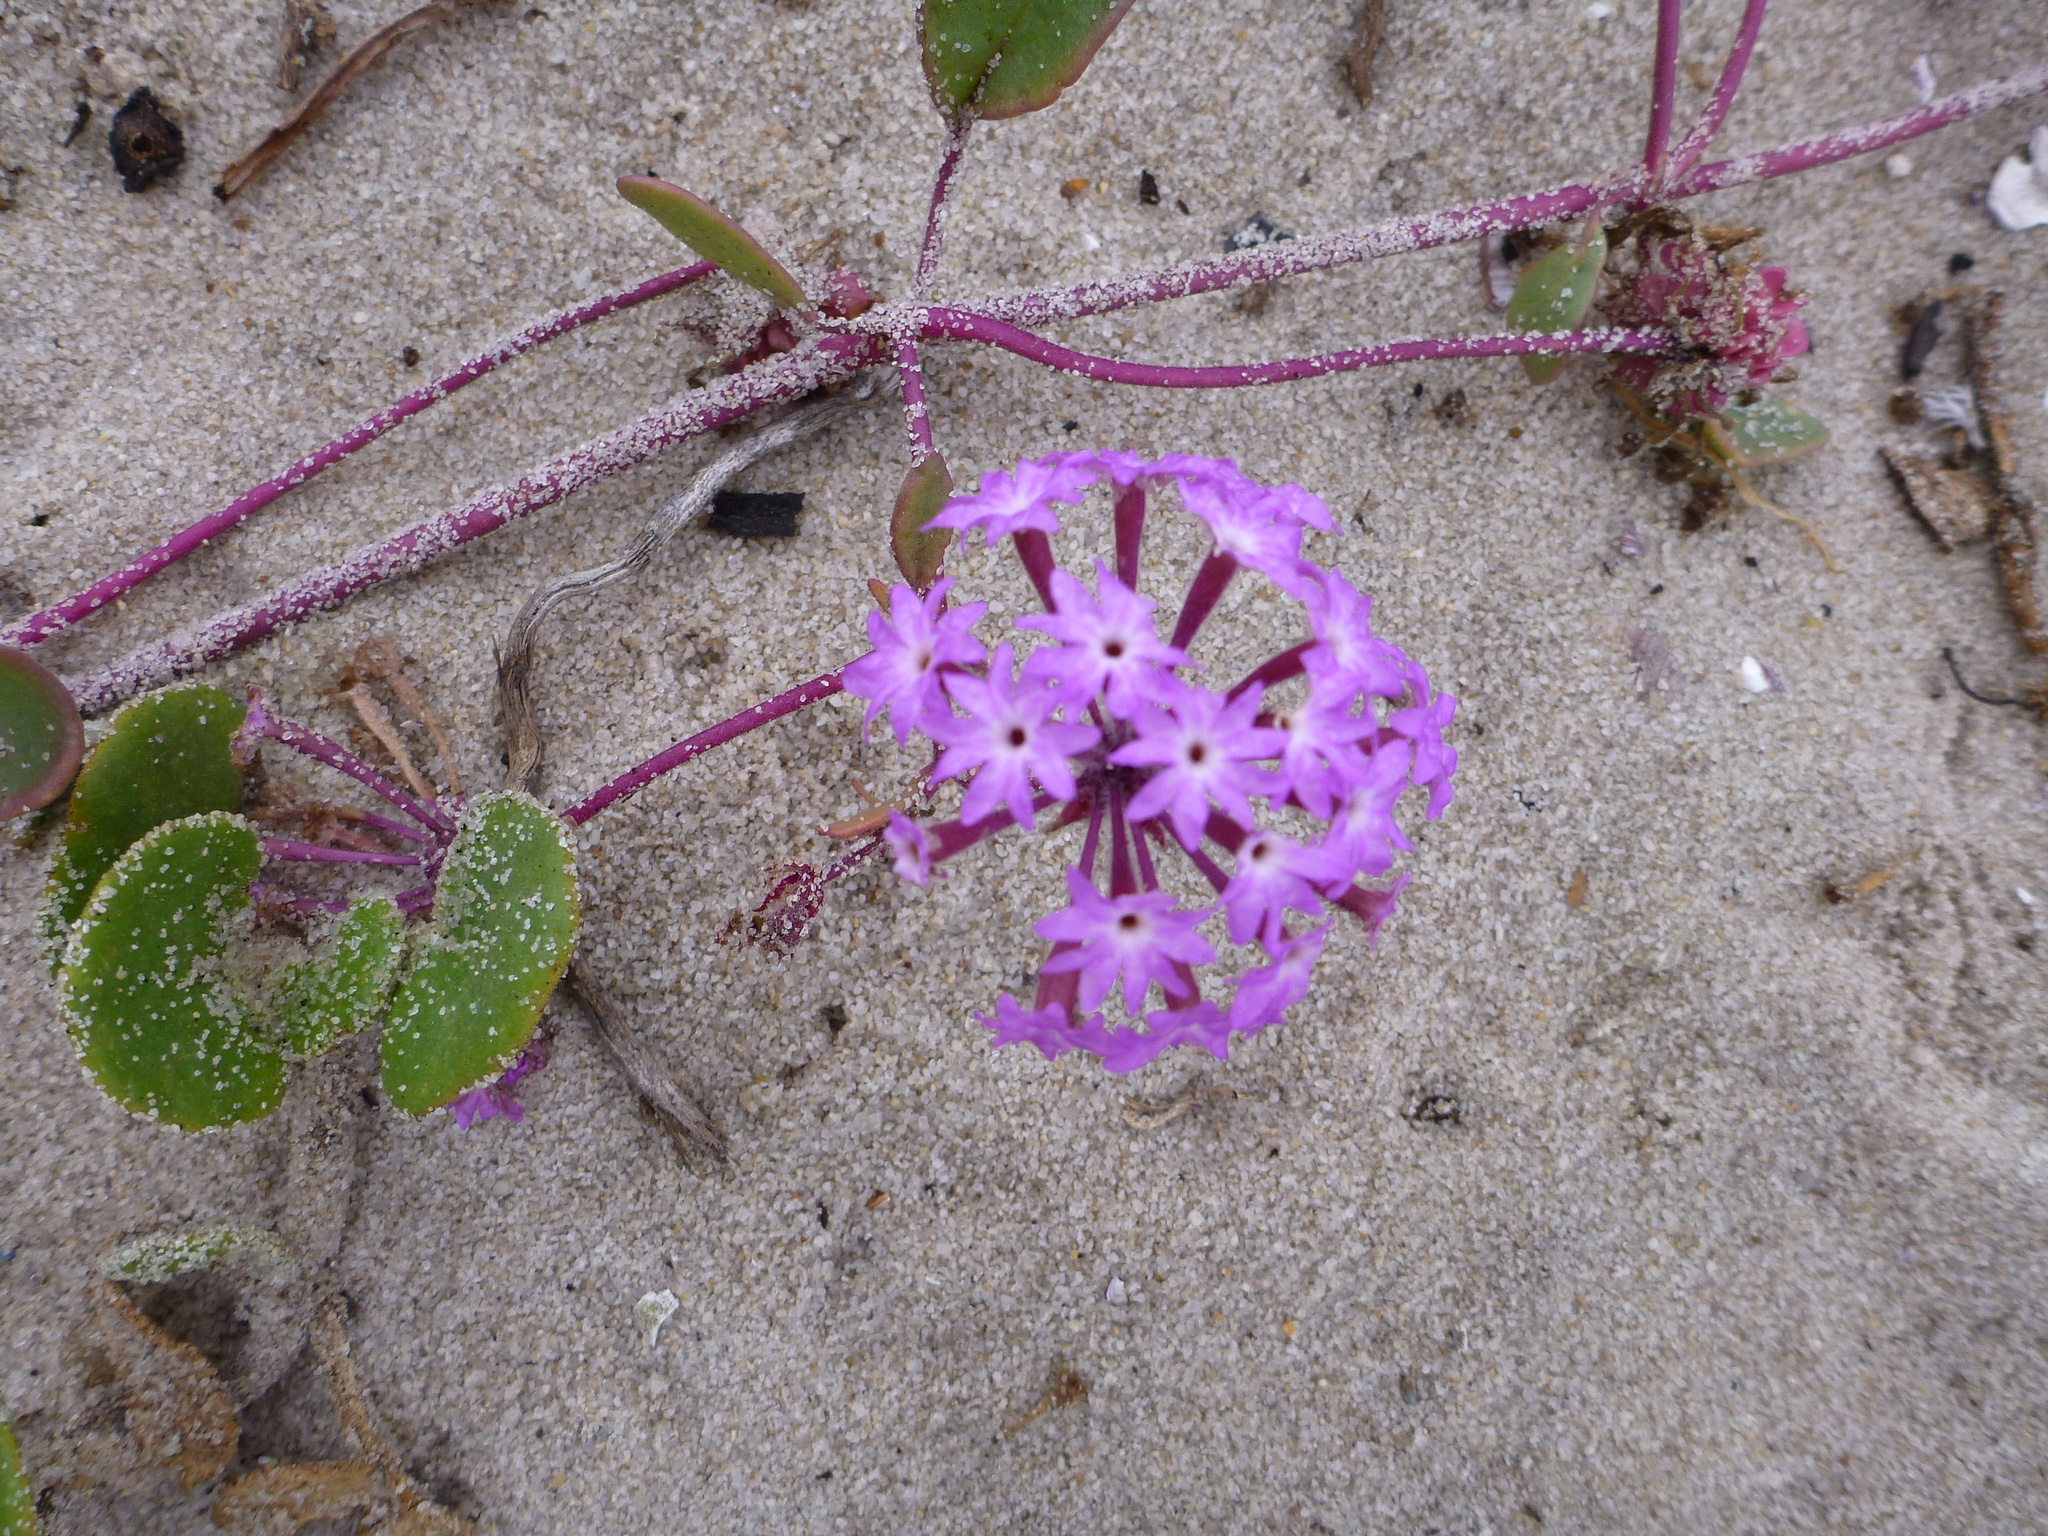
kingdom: Plantae
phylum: Tracheophyta
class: Magnoliopsida
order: Caryophyllales
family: Nyctaginaceae
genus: Abronia
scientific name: Abronia umbellata
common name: Sand-verbena
